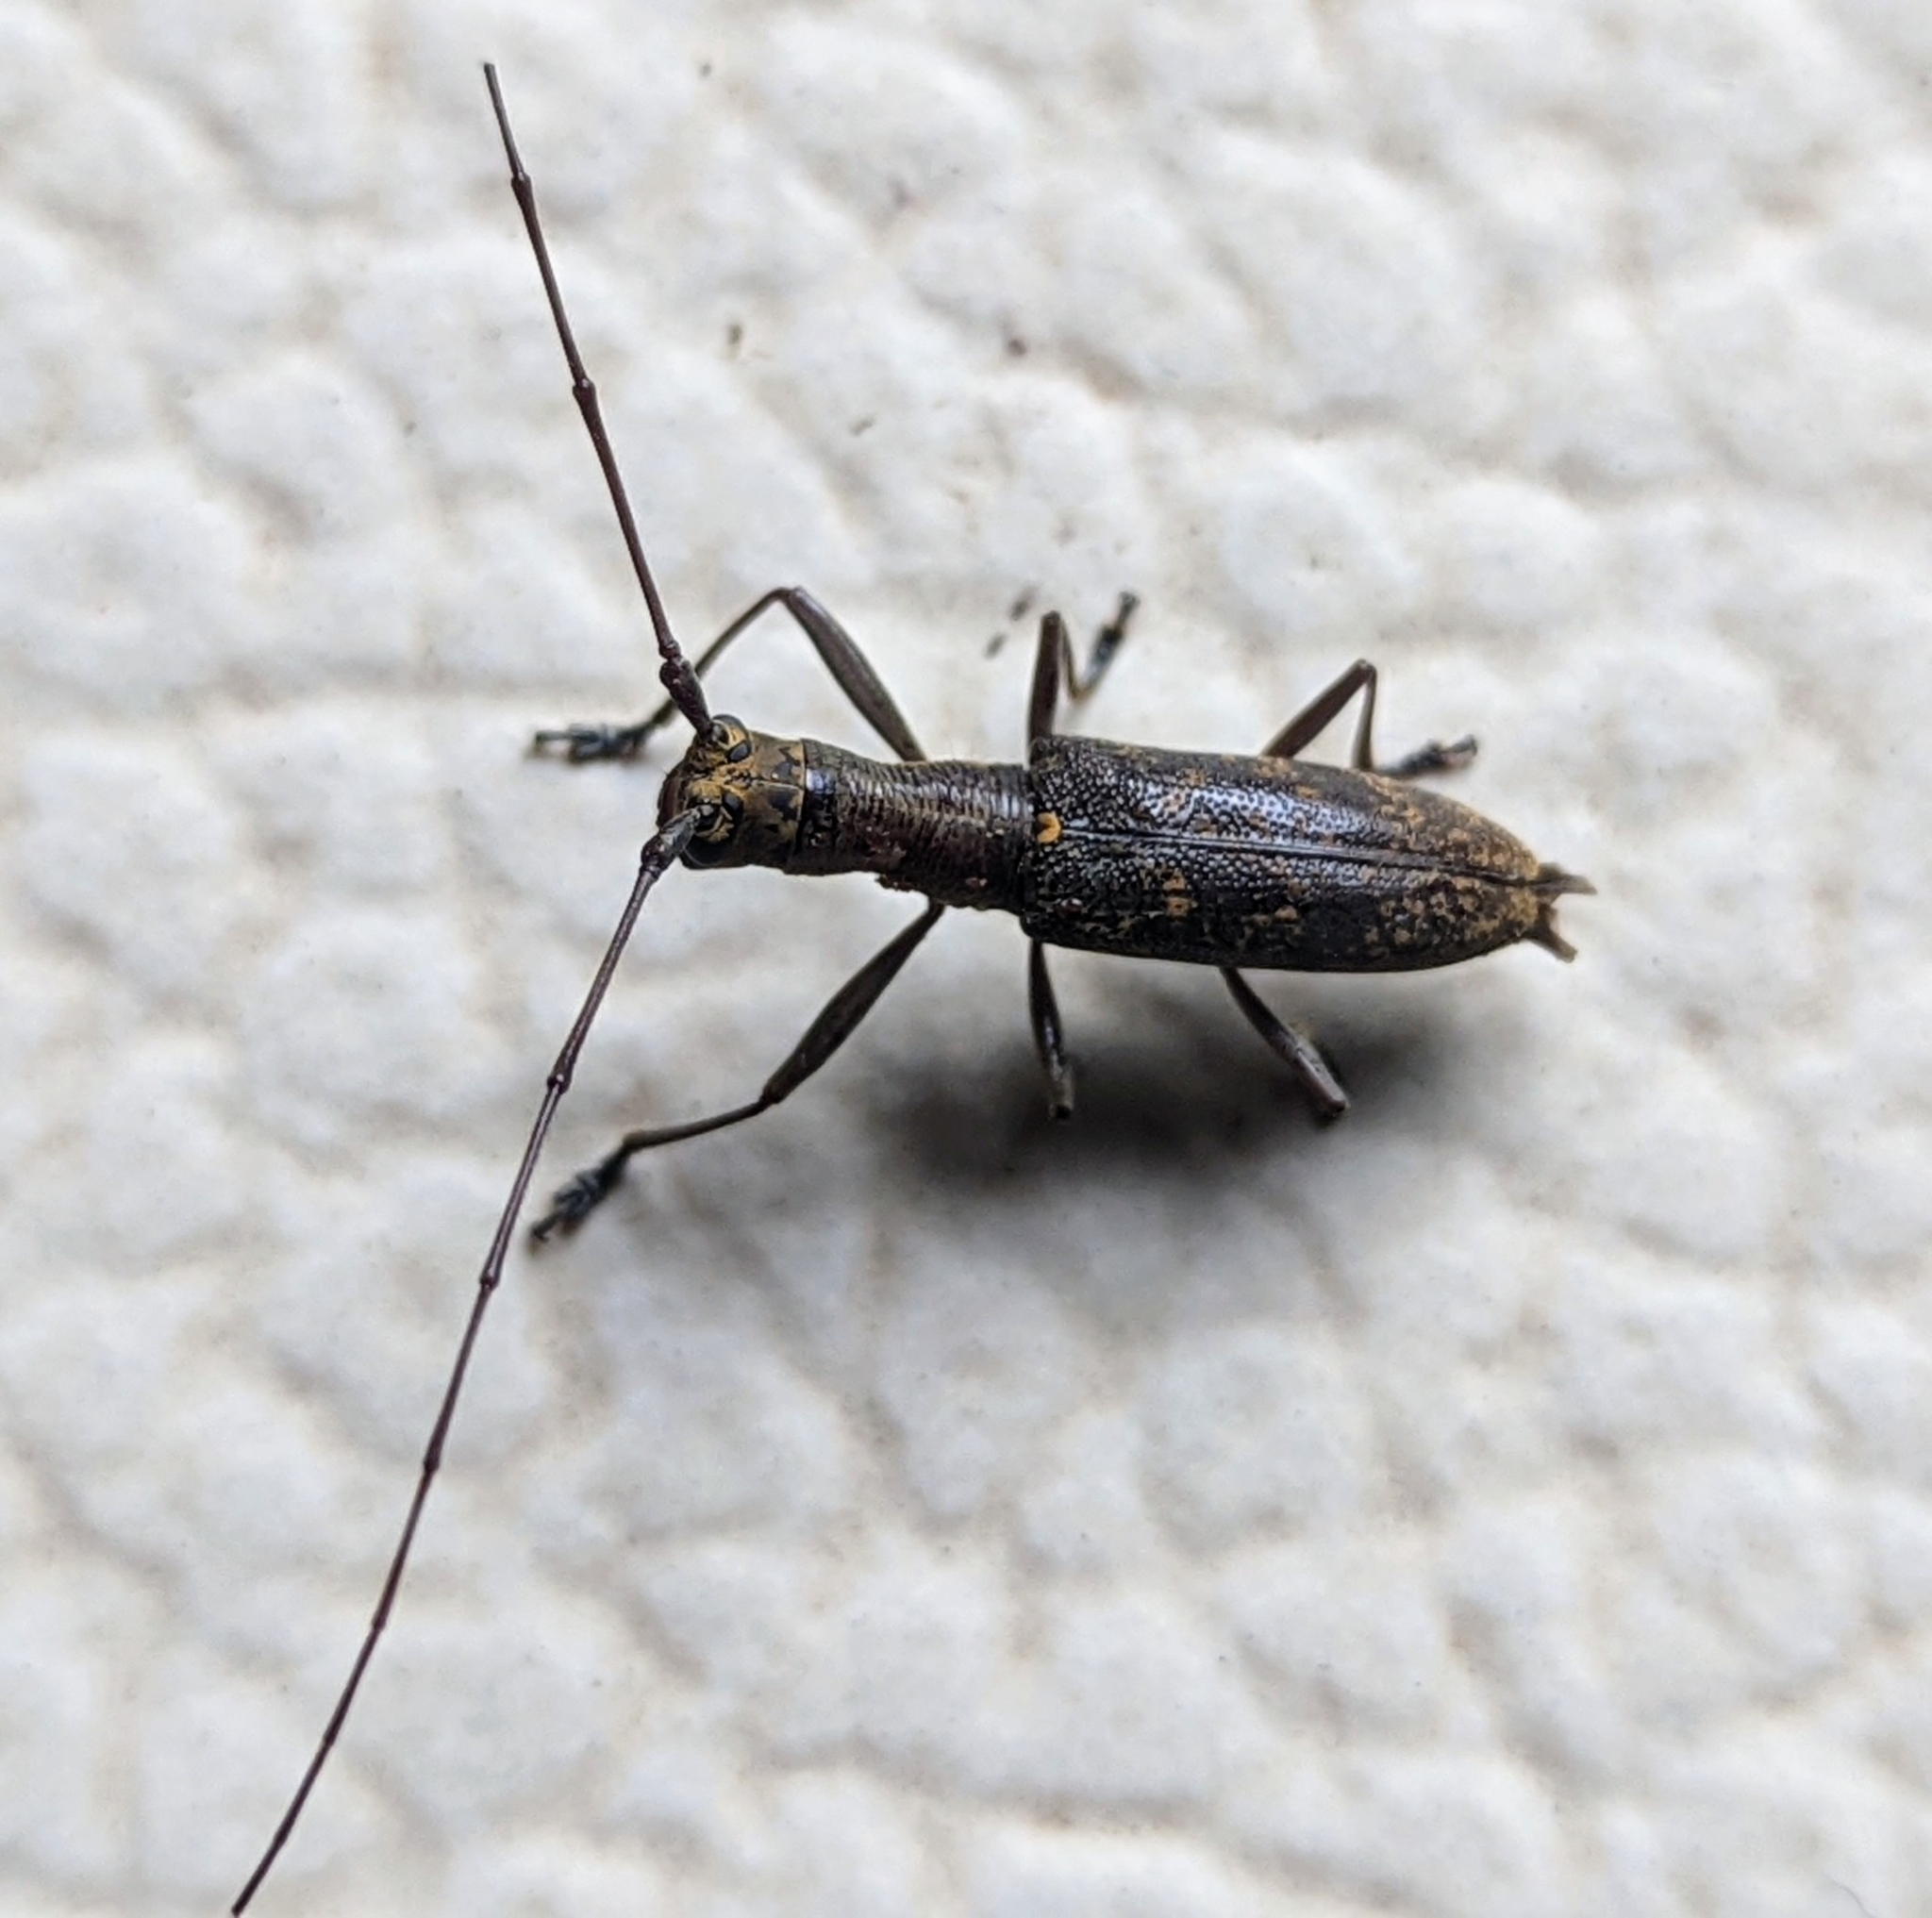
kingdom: Animalia
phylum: Arthropoda
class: Insecta
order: Coleoptera
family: Cerambycidae
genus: Gnoma
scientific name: Gnoma longicollis
